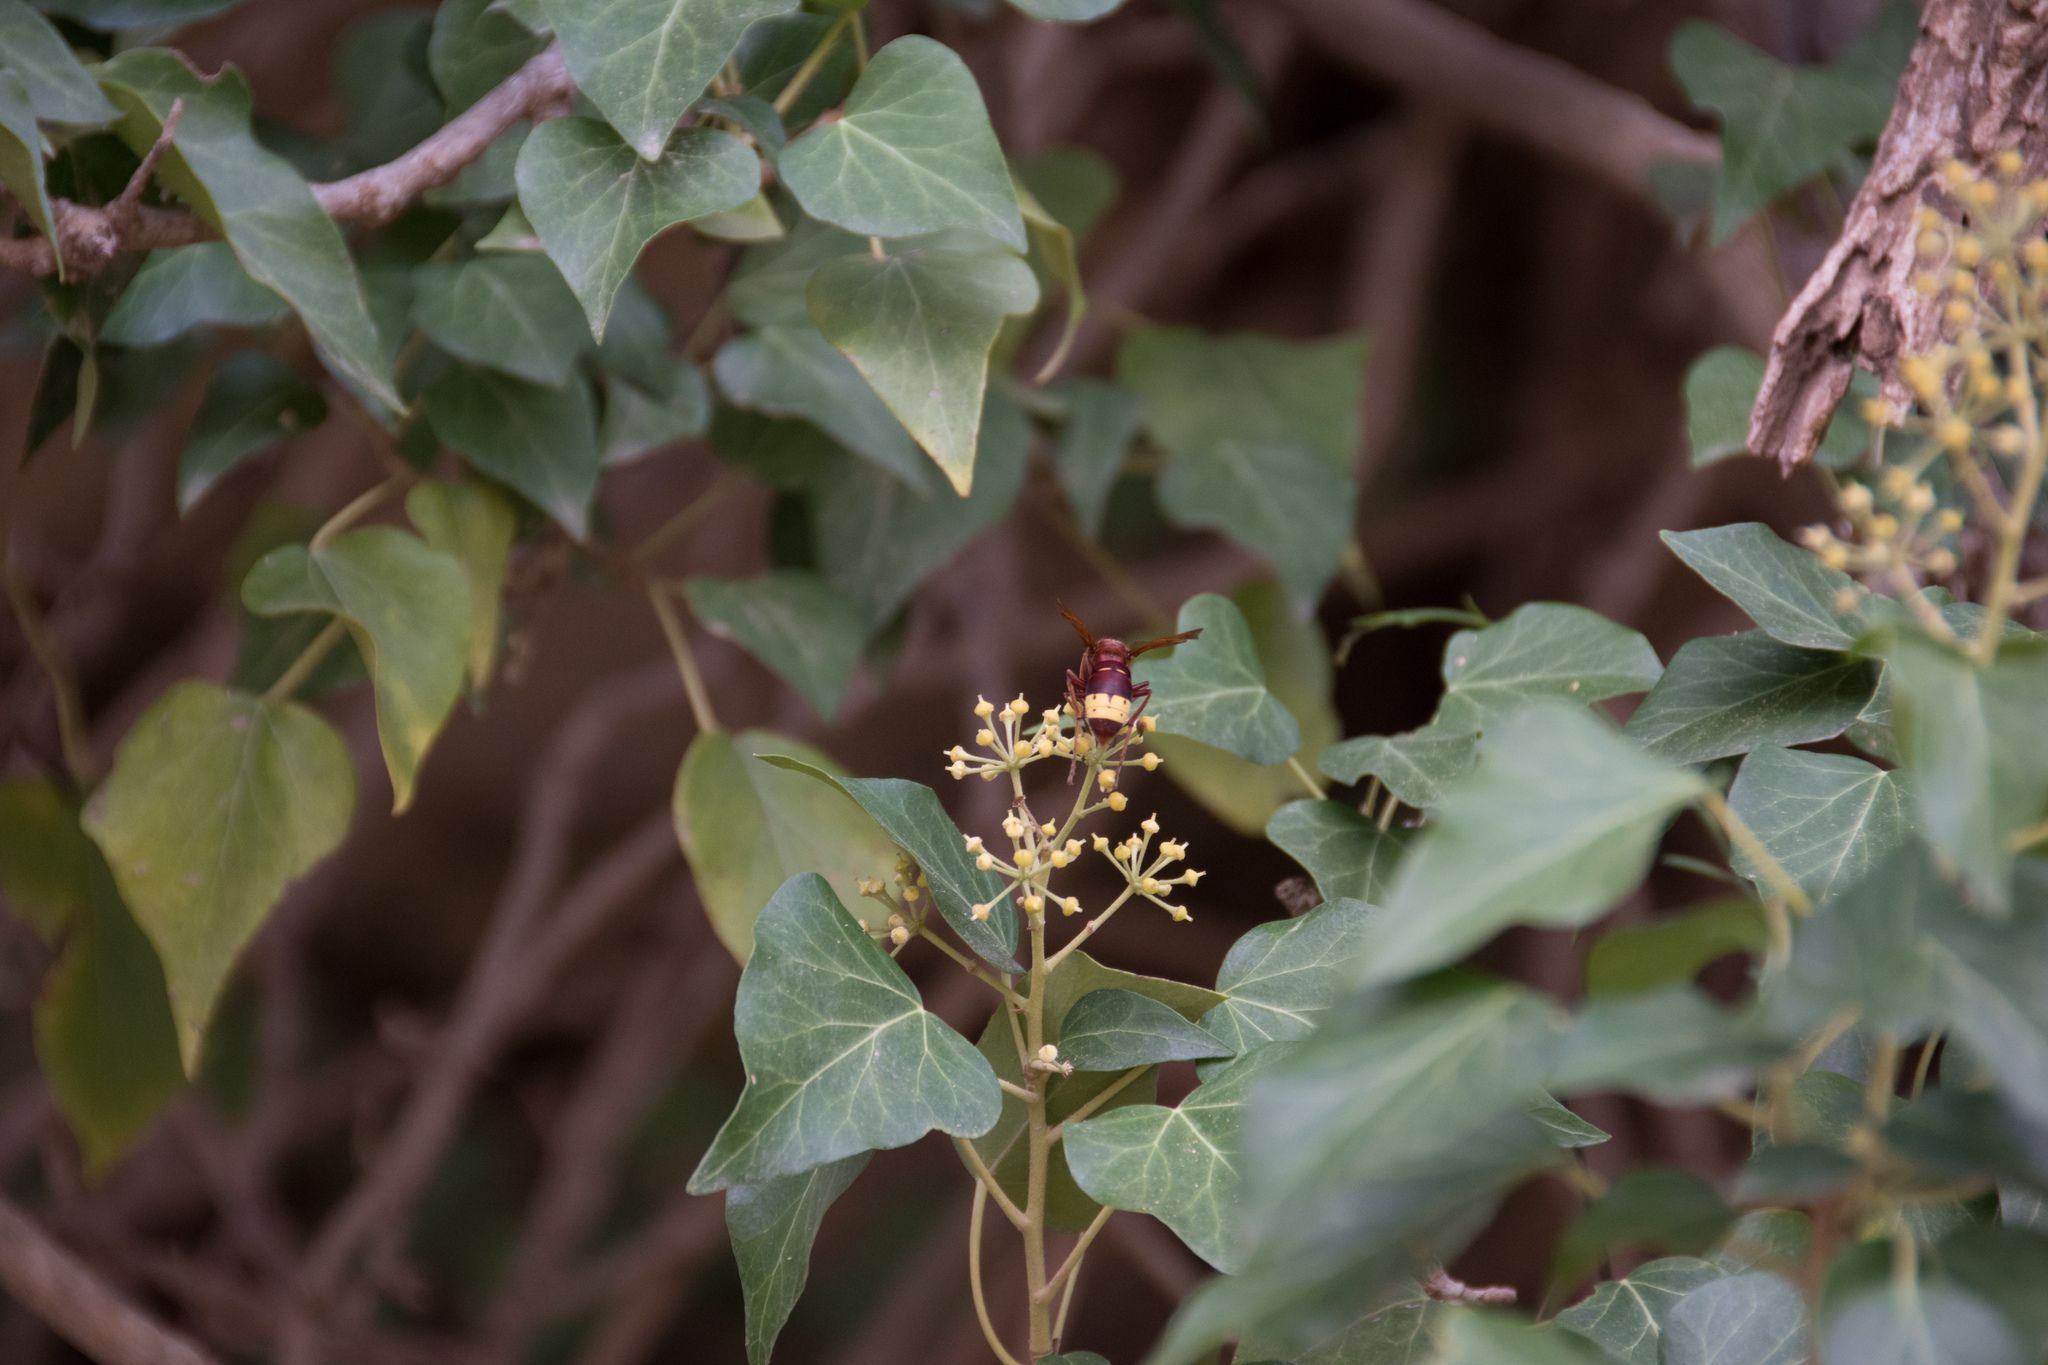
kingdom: Animalia
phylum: Arthropoda
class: Insecta
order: Hymenoptera
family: Vespidae
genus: Vespa
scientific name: Vespa orientalis
